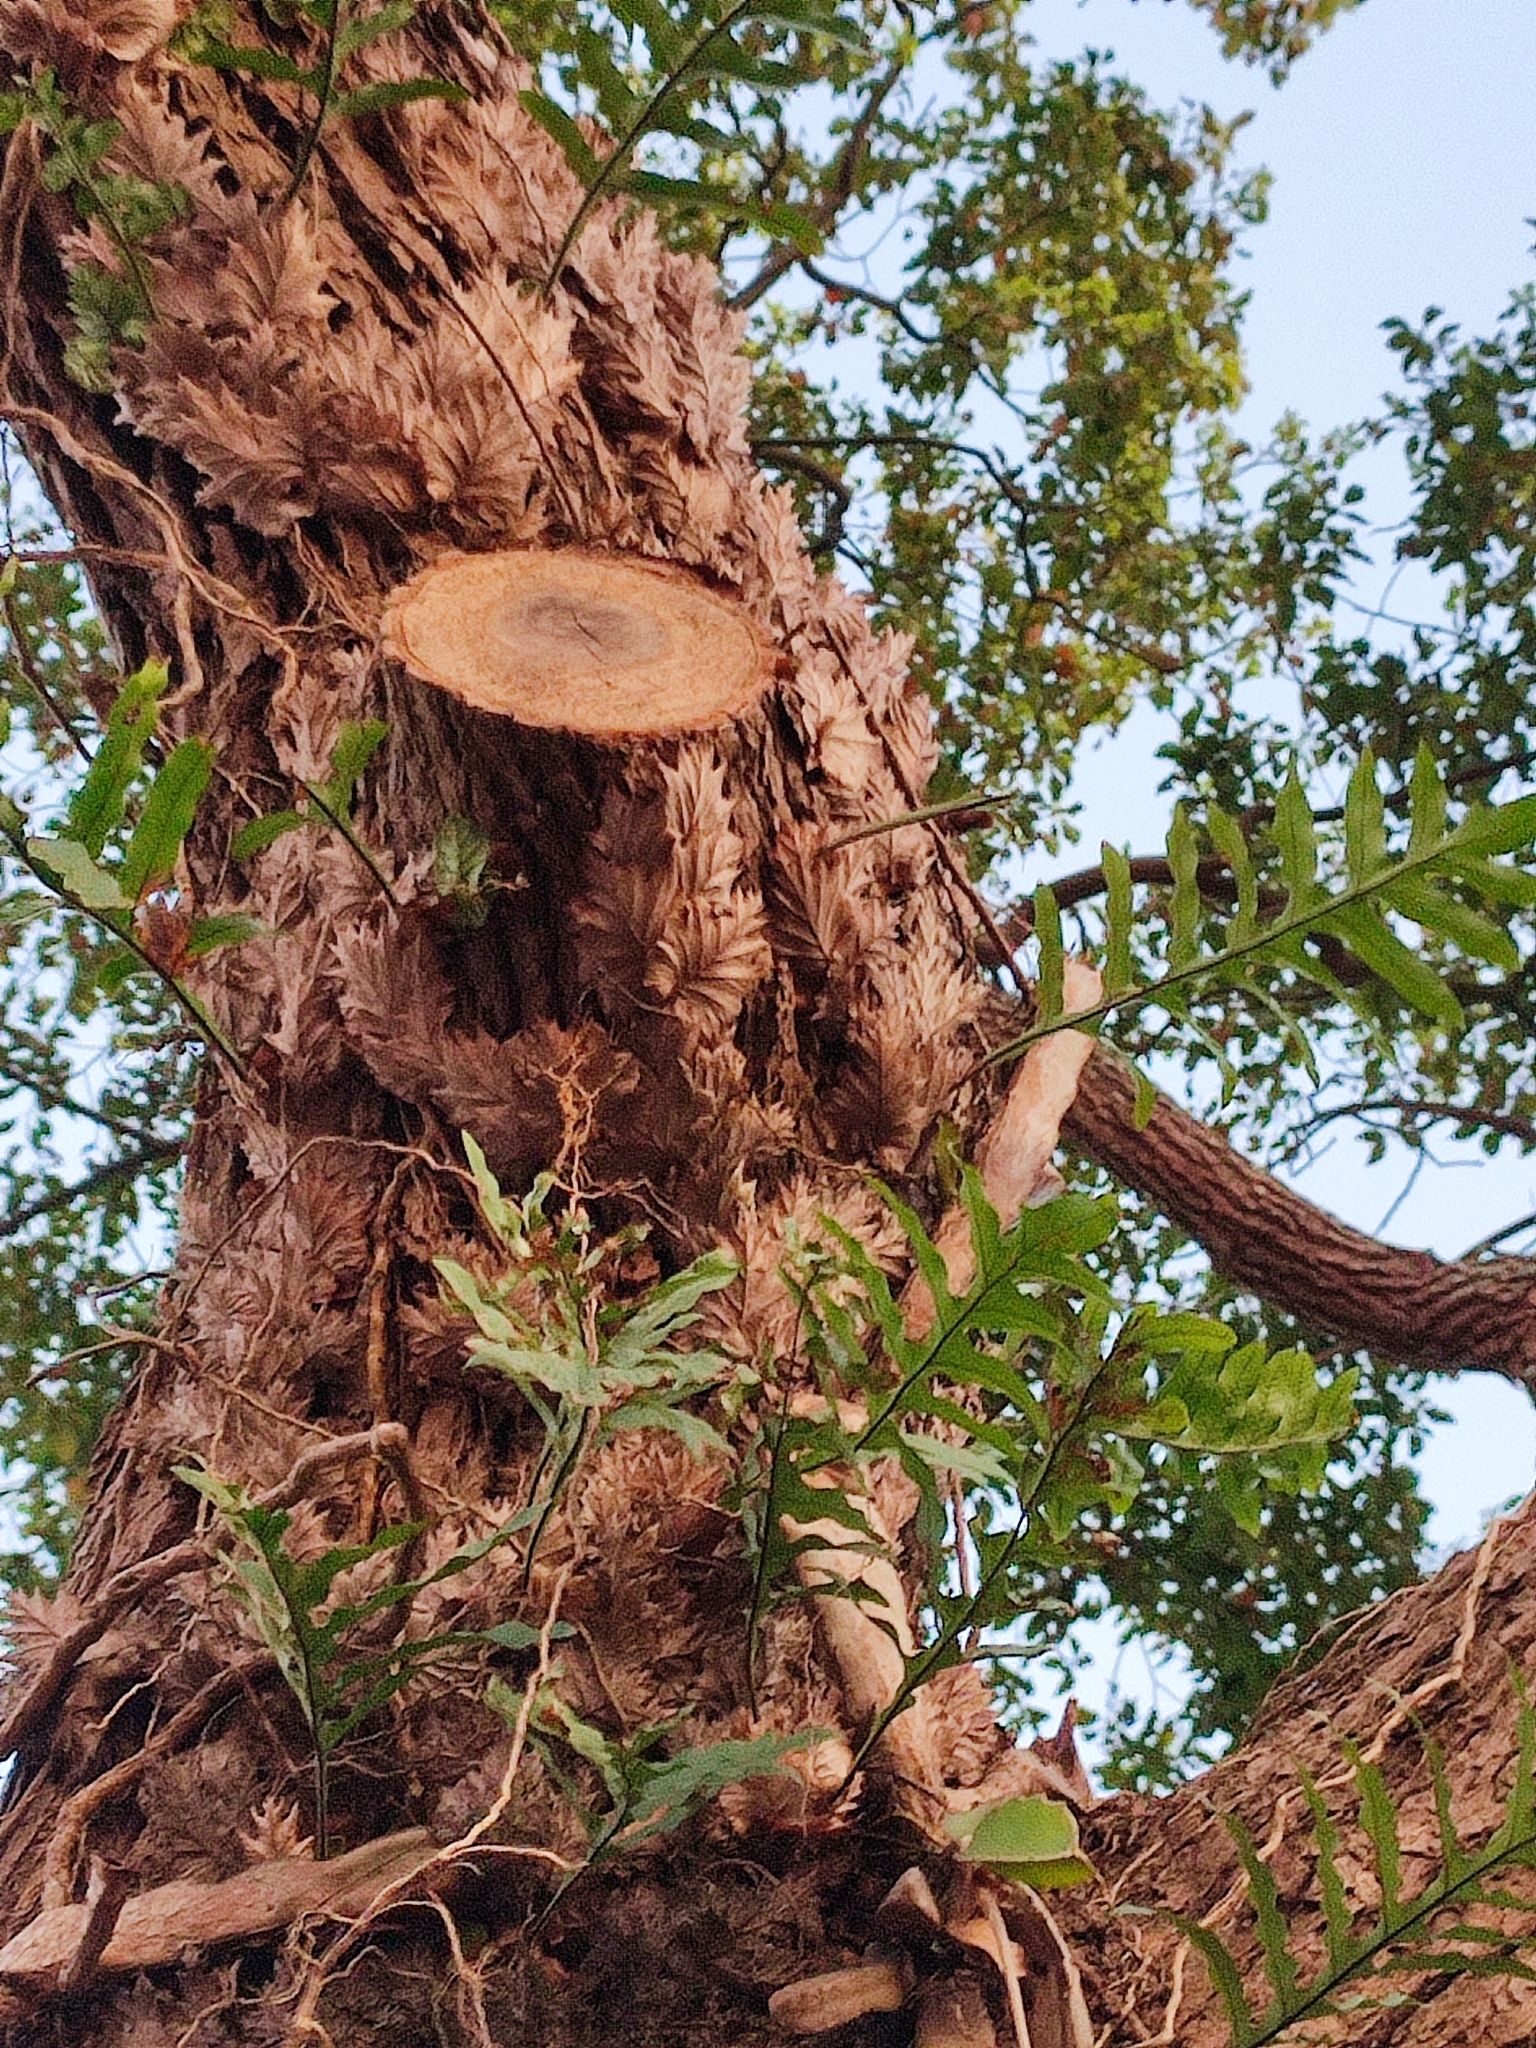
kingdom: Plantae
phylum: Tracheophyta
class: Polypodiopsida
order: Polypodiales
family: Polypodiaceae
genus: Drynaria
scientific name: Drynaria roosii
